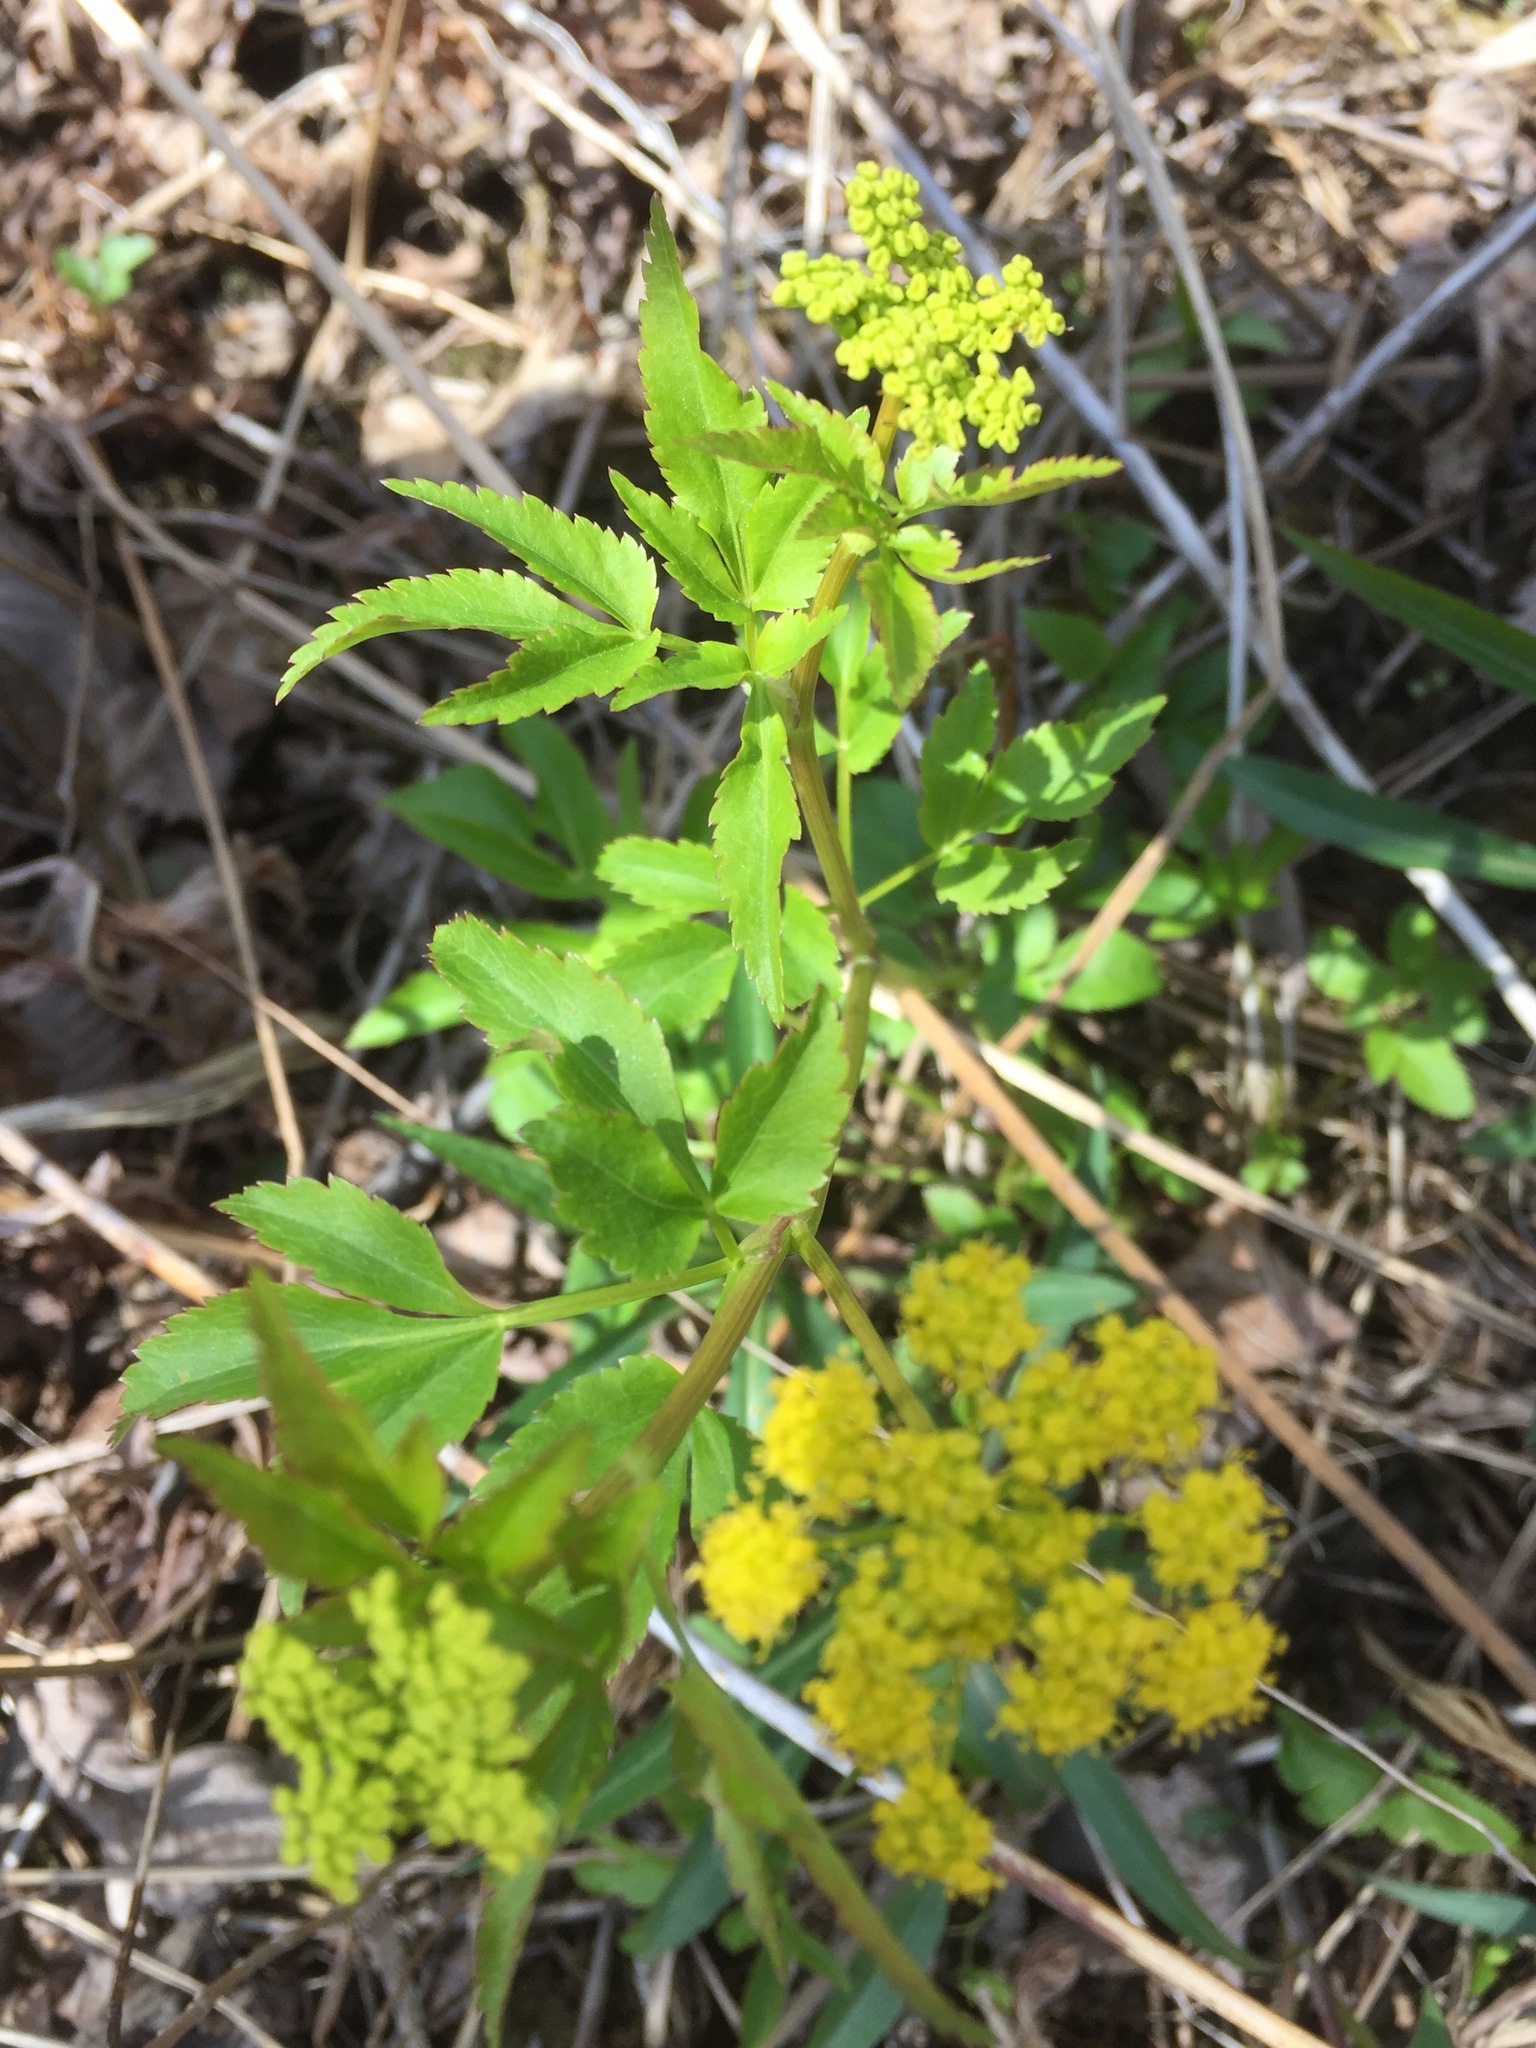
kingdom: Plantae
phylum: Tracheophyta
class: Magnoliopsida
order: Apiales
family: Apiaceae
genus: Zizia
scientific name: Zizia aurea
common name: Golden alexanders
